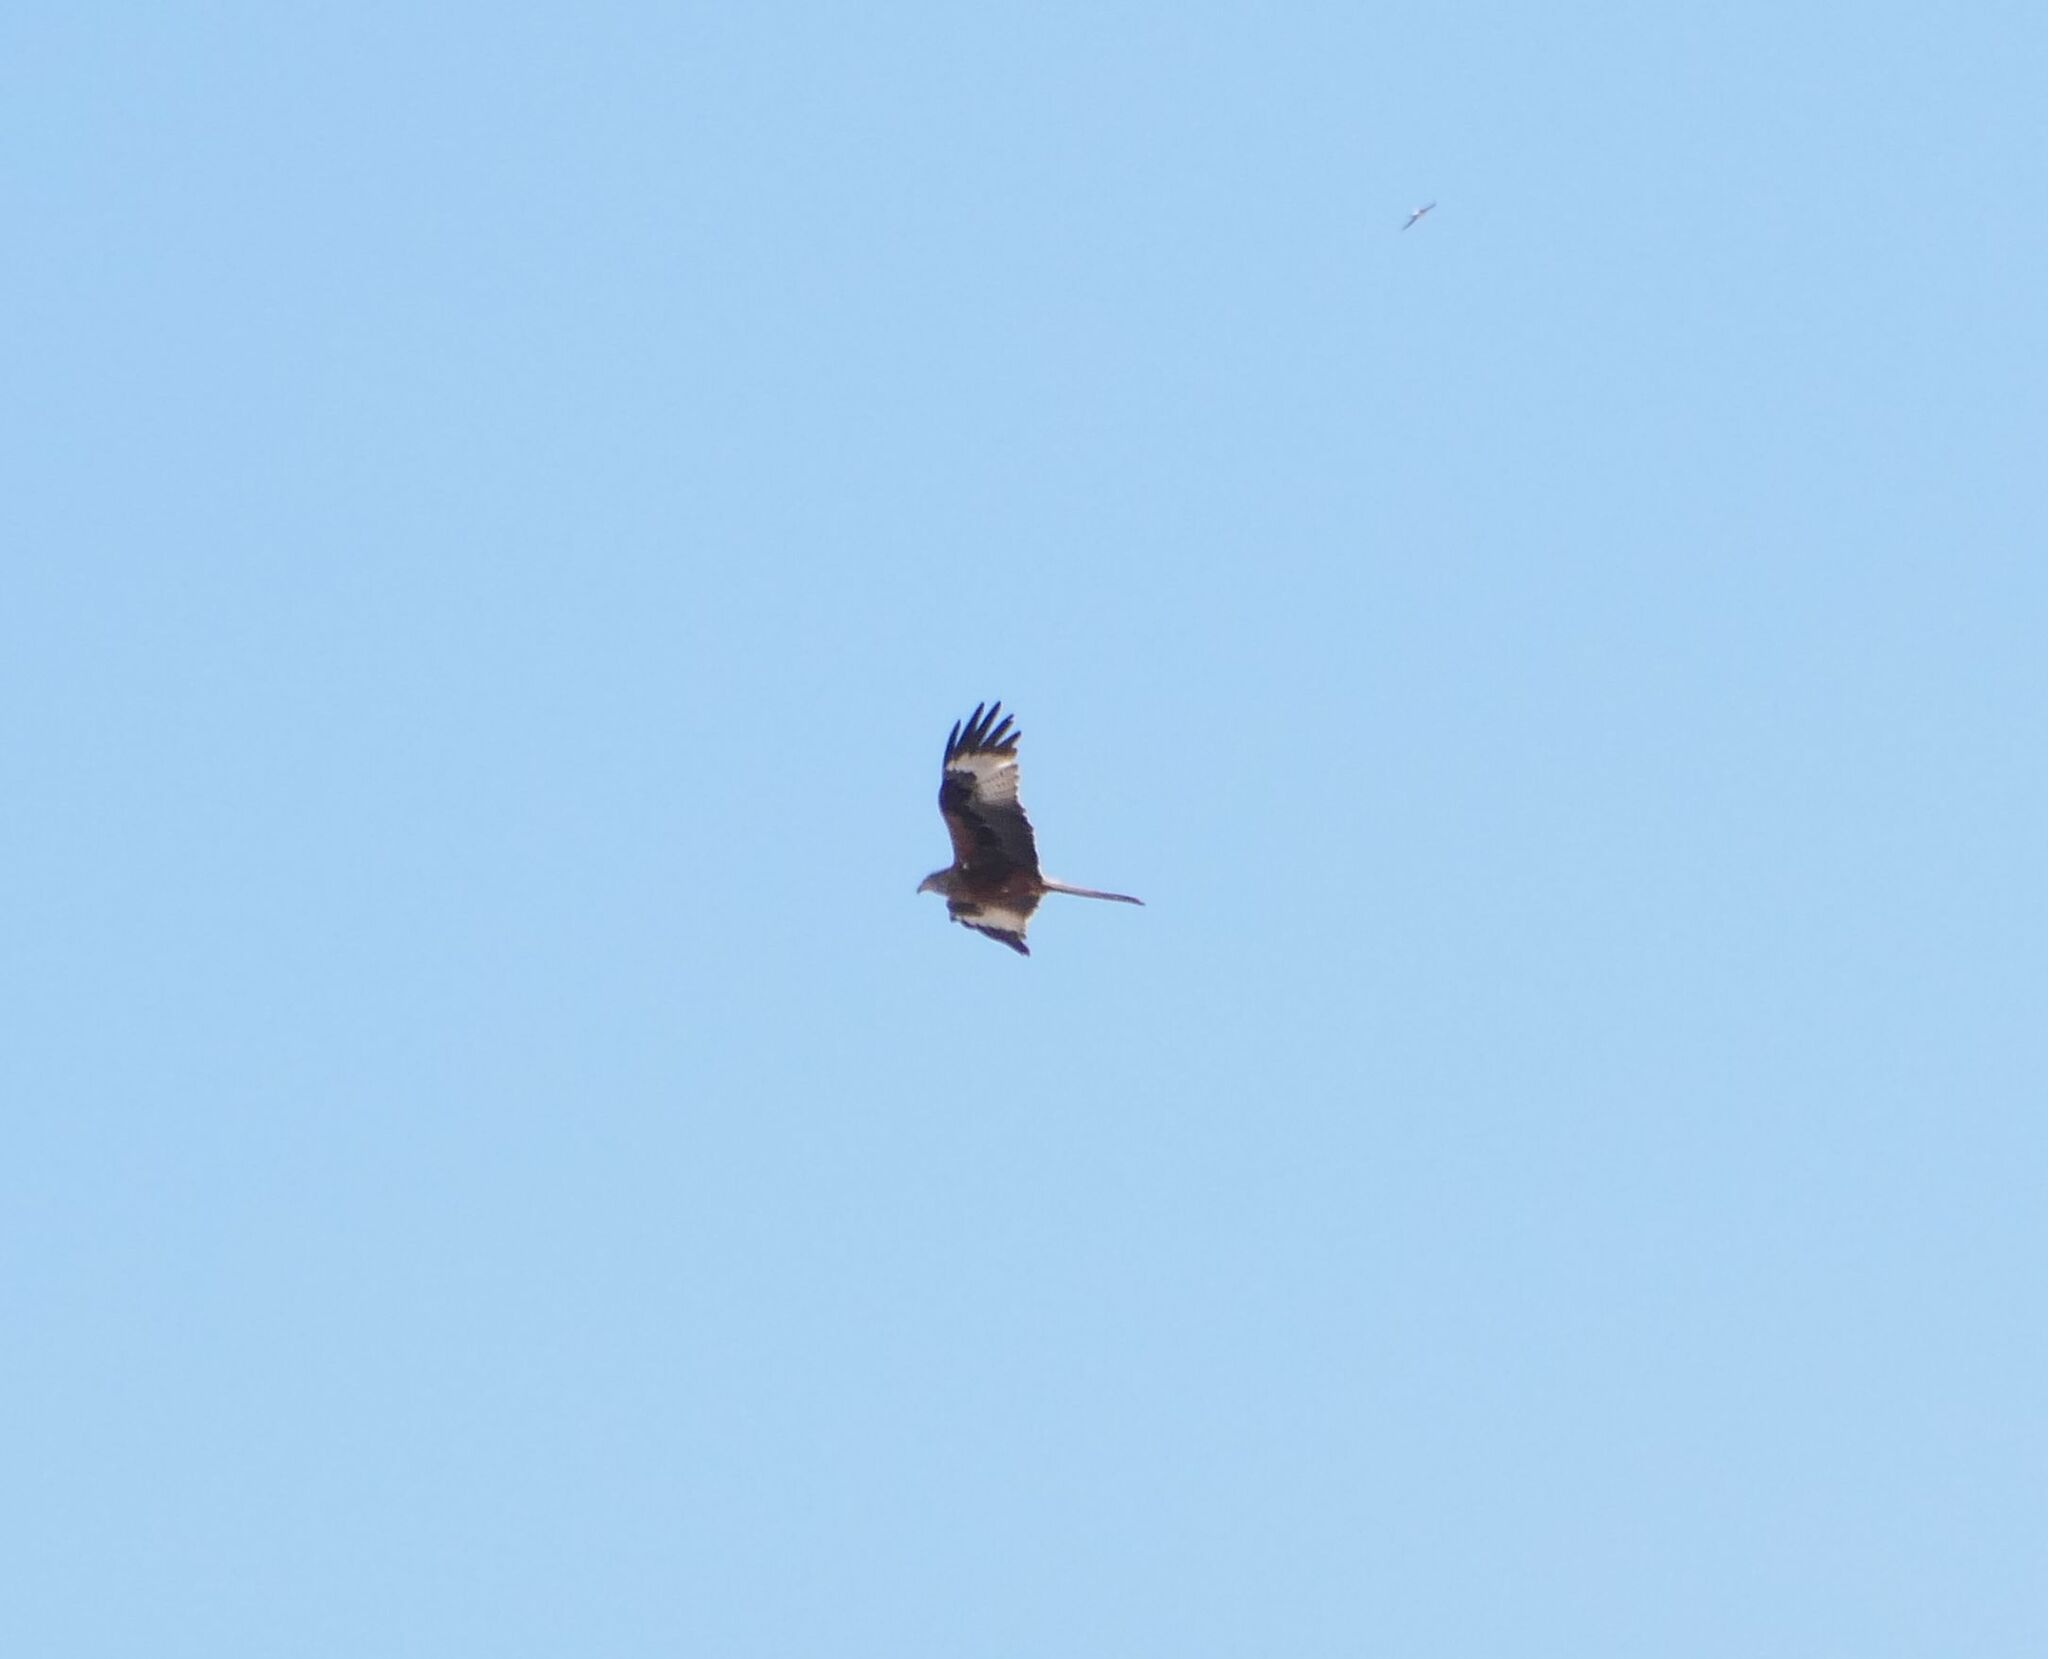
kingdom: Animalia
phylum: Chordata
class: Aves
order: Accipitriformes
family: Accipitridae
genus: Milvus
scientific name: Milvus milvus
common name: Red kite
